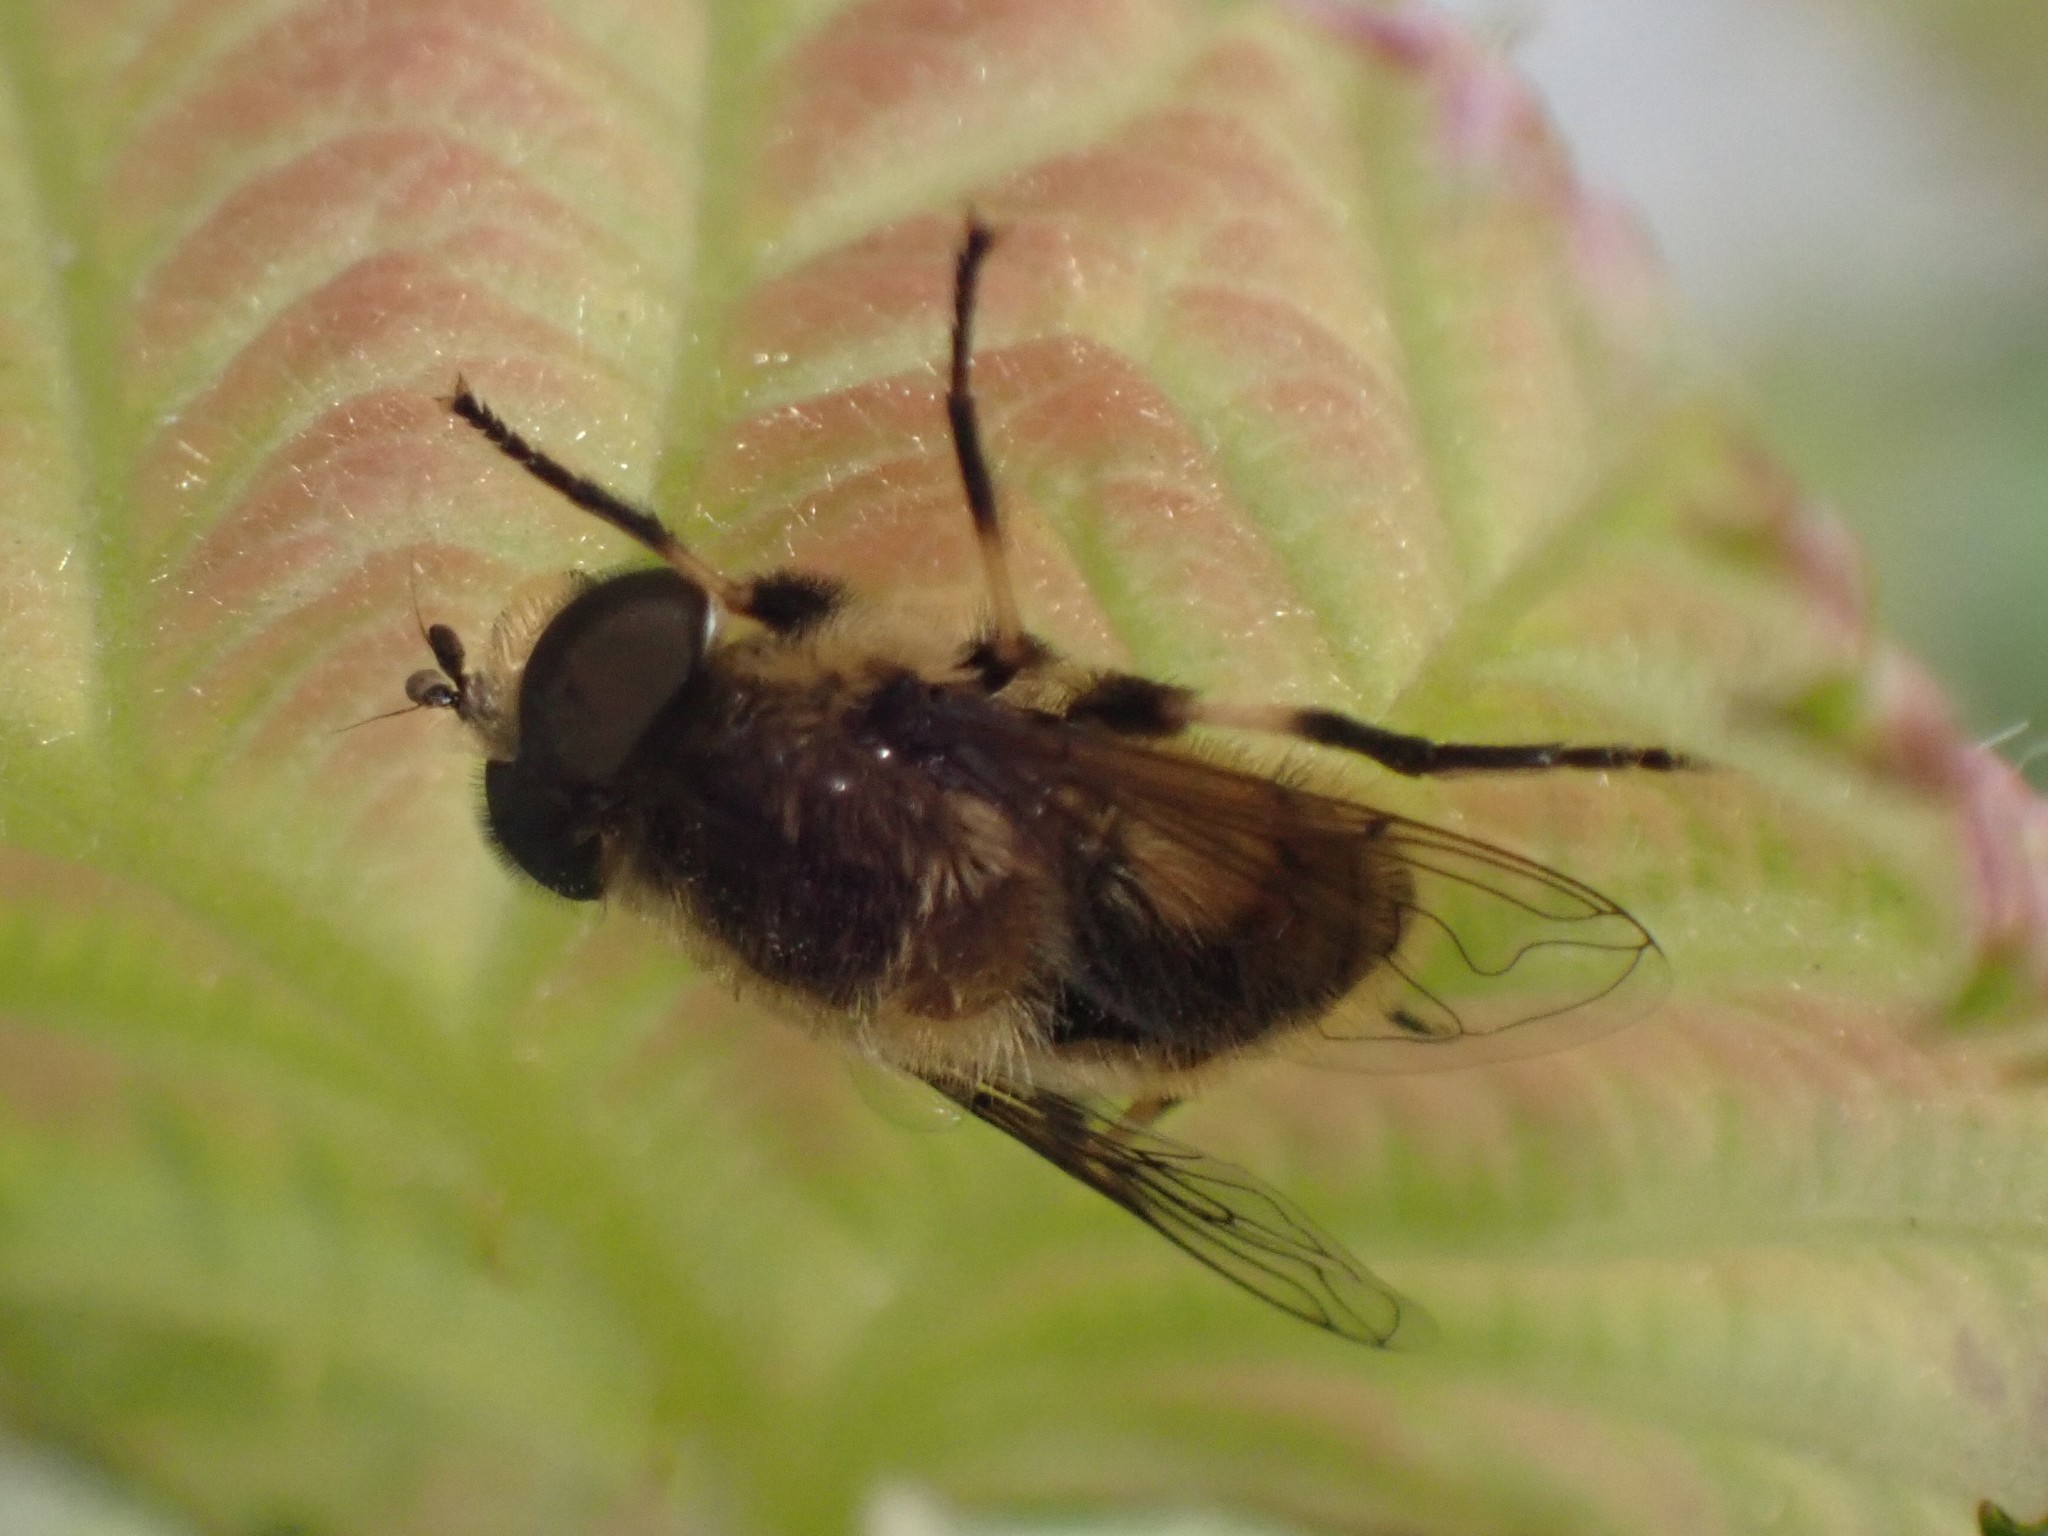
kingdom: Animalia
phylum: Arthropoda
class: Insecta
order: Diptera
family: Syrphidae
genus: Eristalis
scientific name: Eristalis anthophorina
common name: Orange-spotted drone fly
